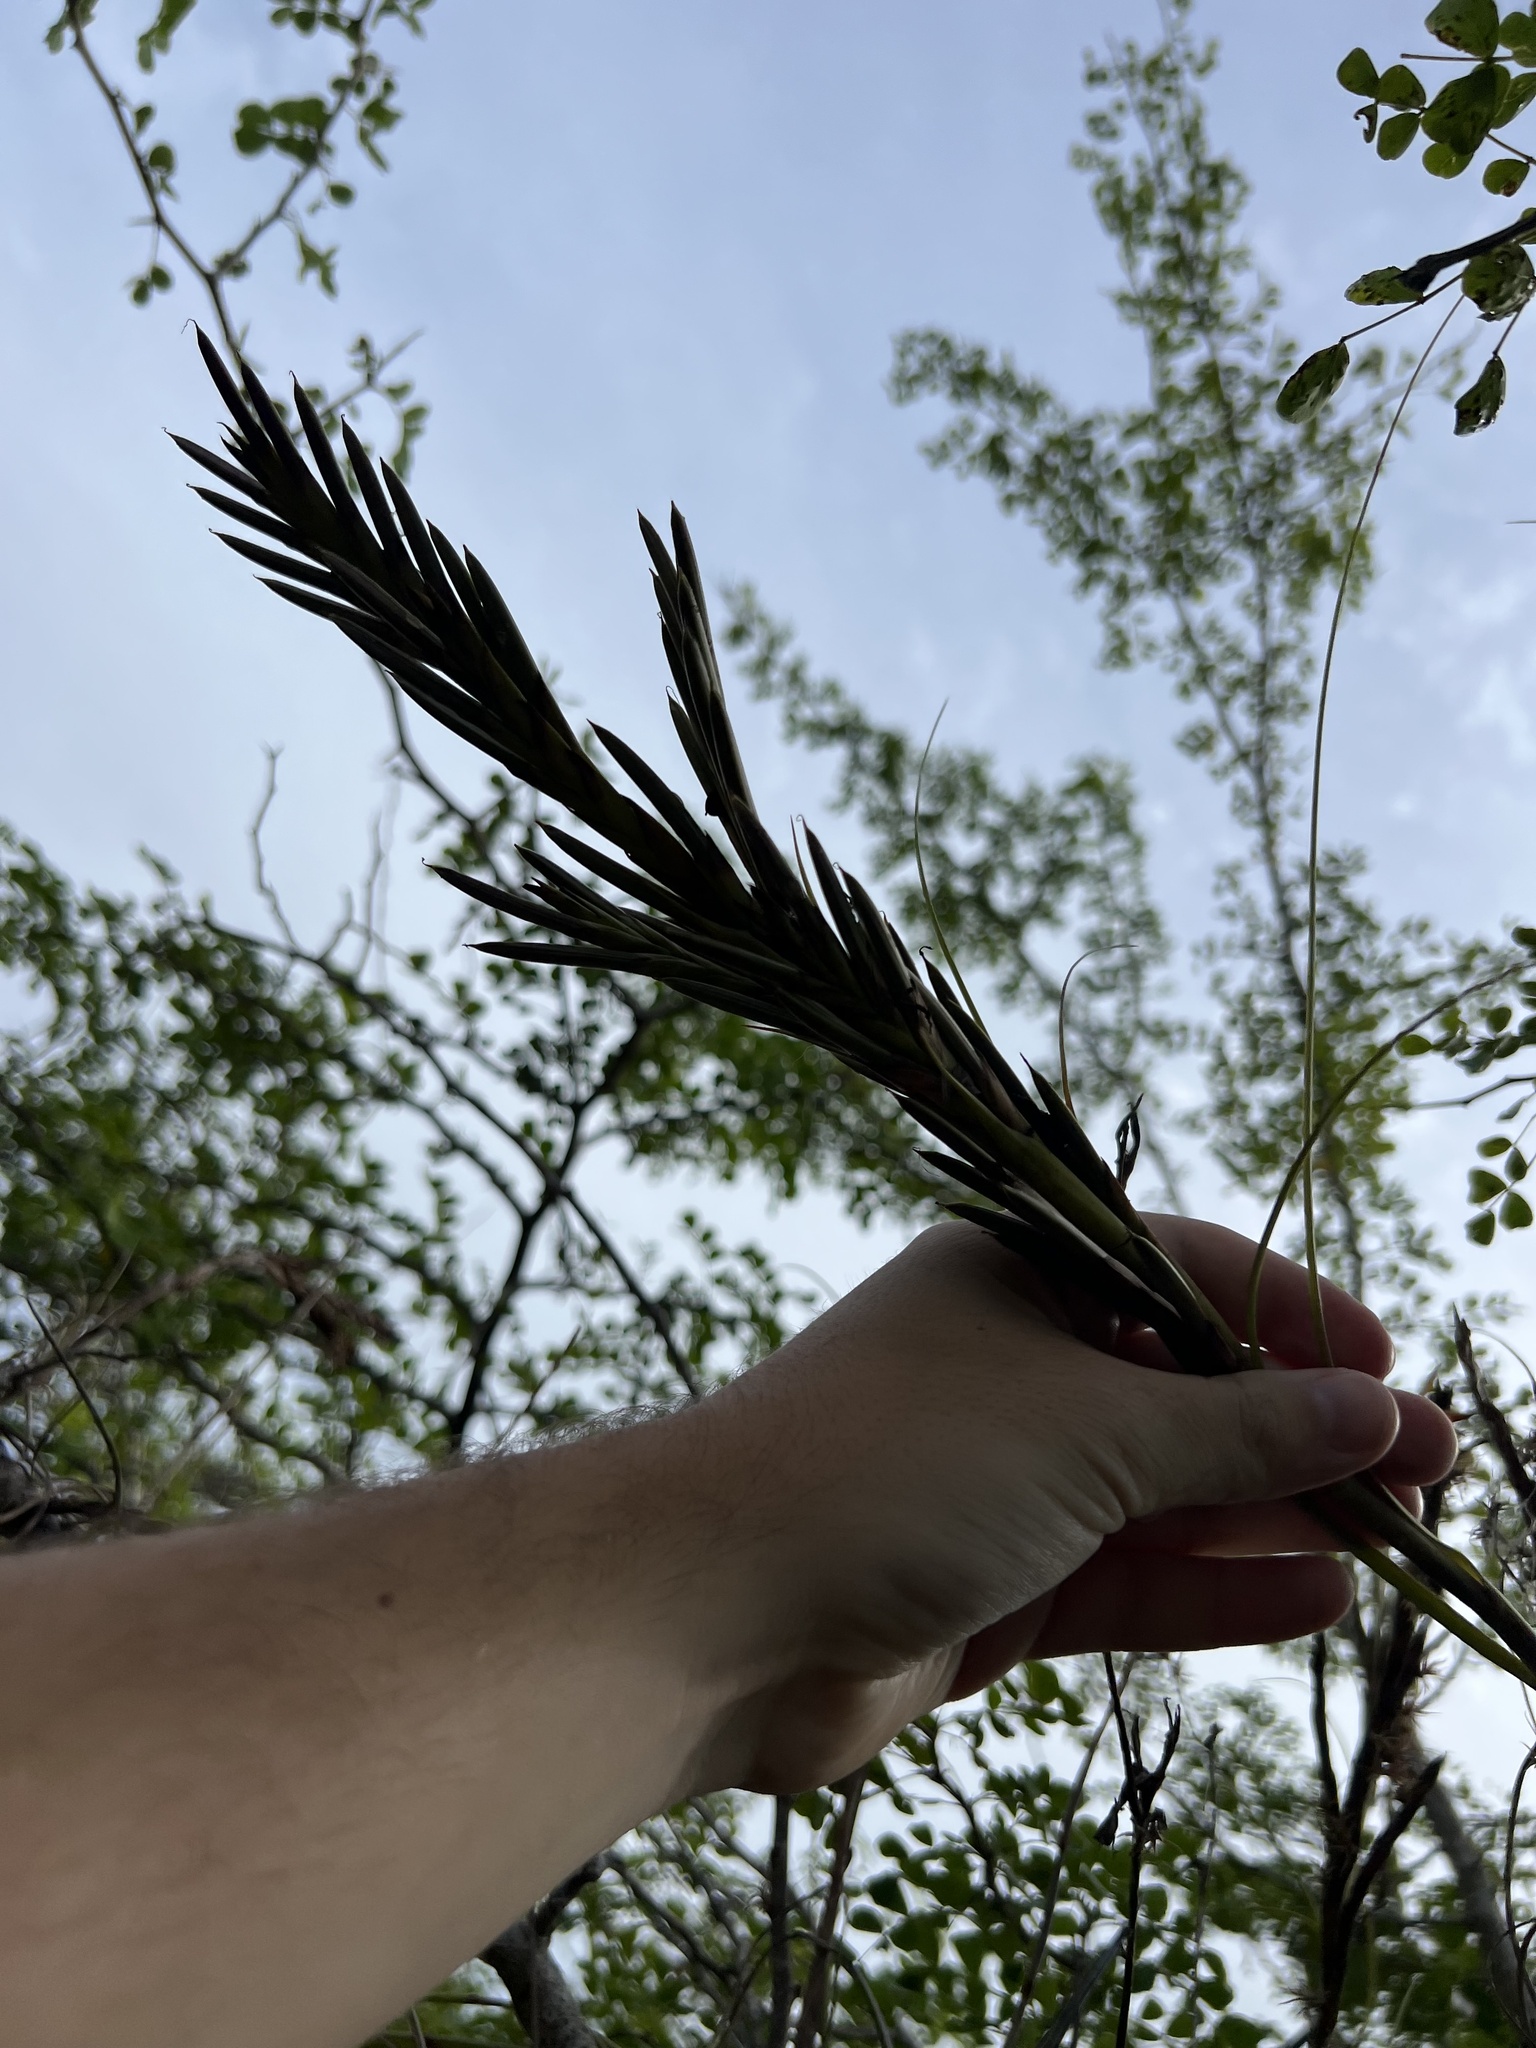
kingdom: Plantae
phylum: Tracheophyta
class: Liliopsida
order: Poales
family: Bromeliaceae
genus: Tillandsia
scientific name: Tillandsia balbisiana
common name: Northern needleleaf
